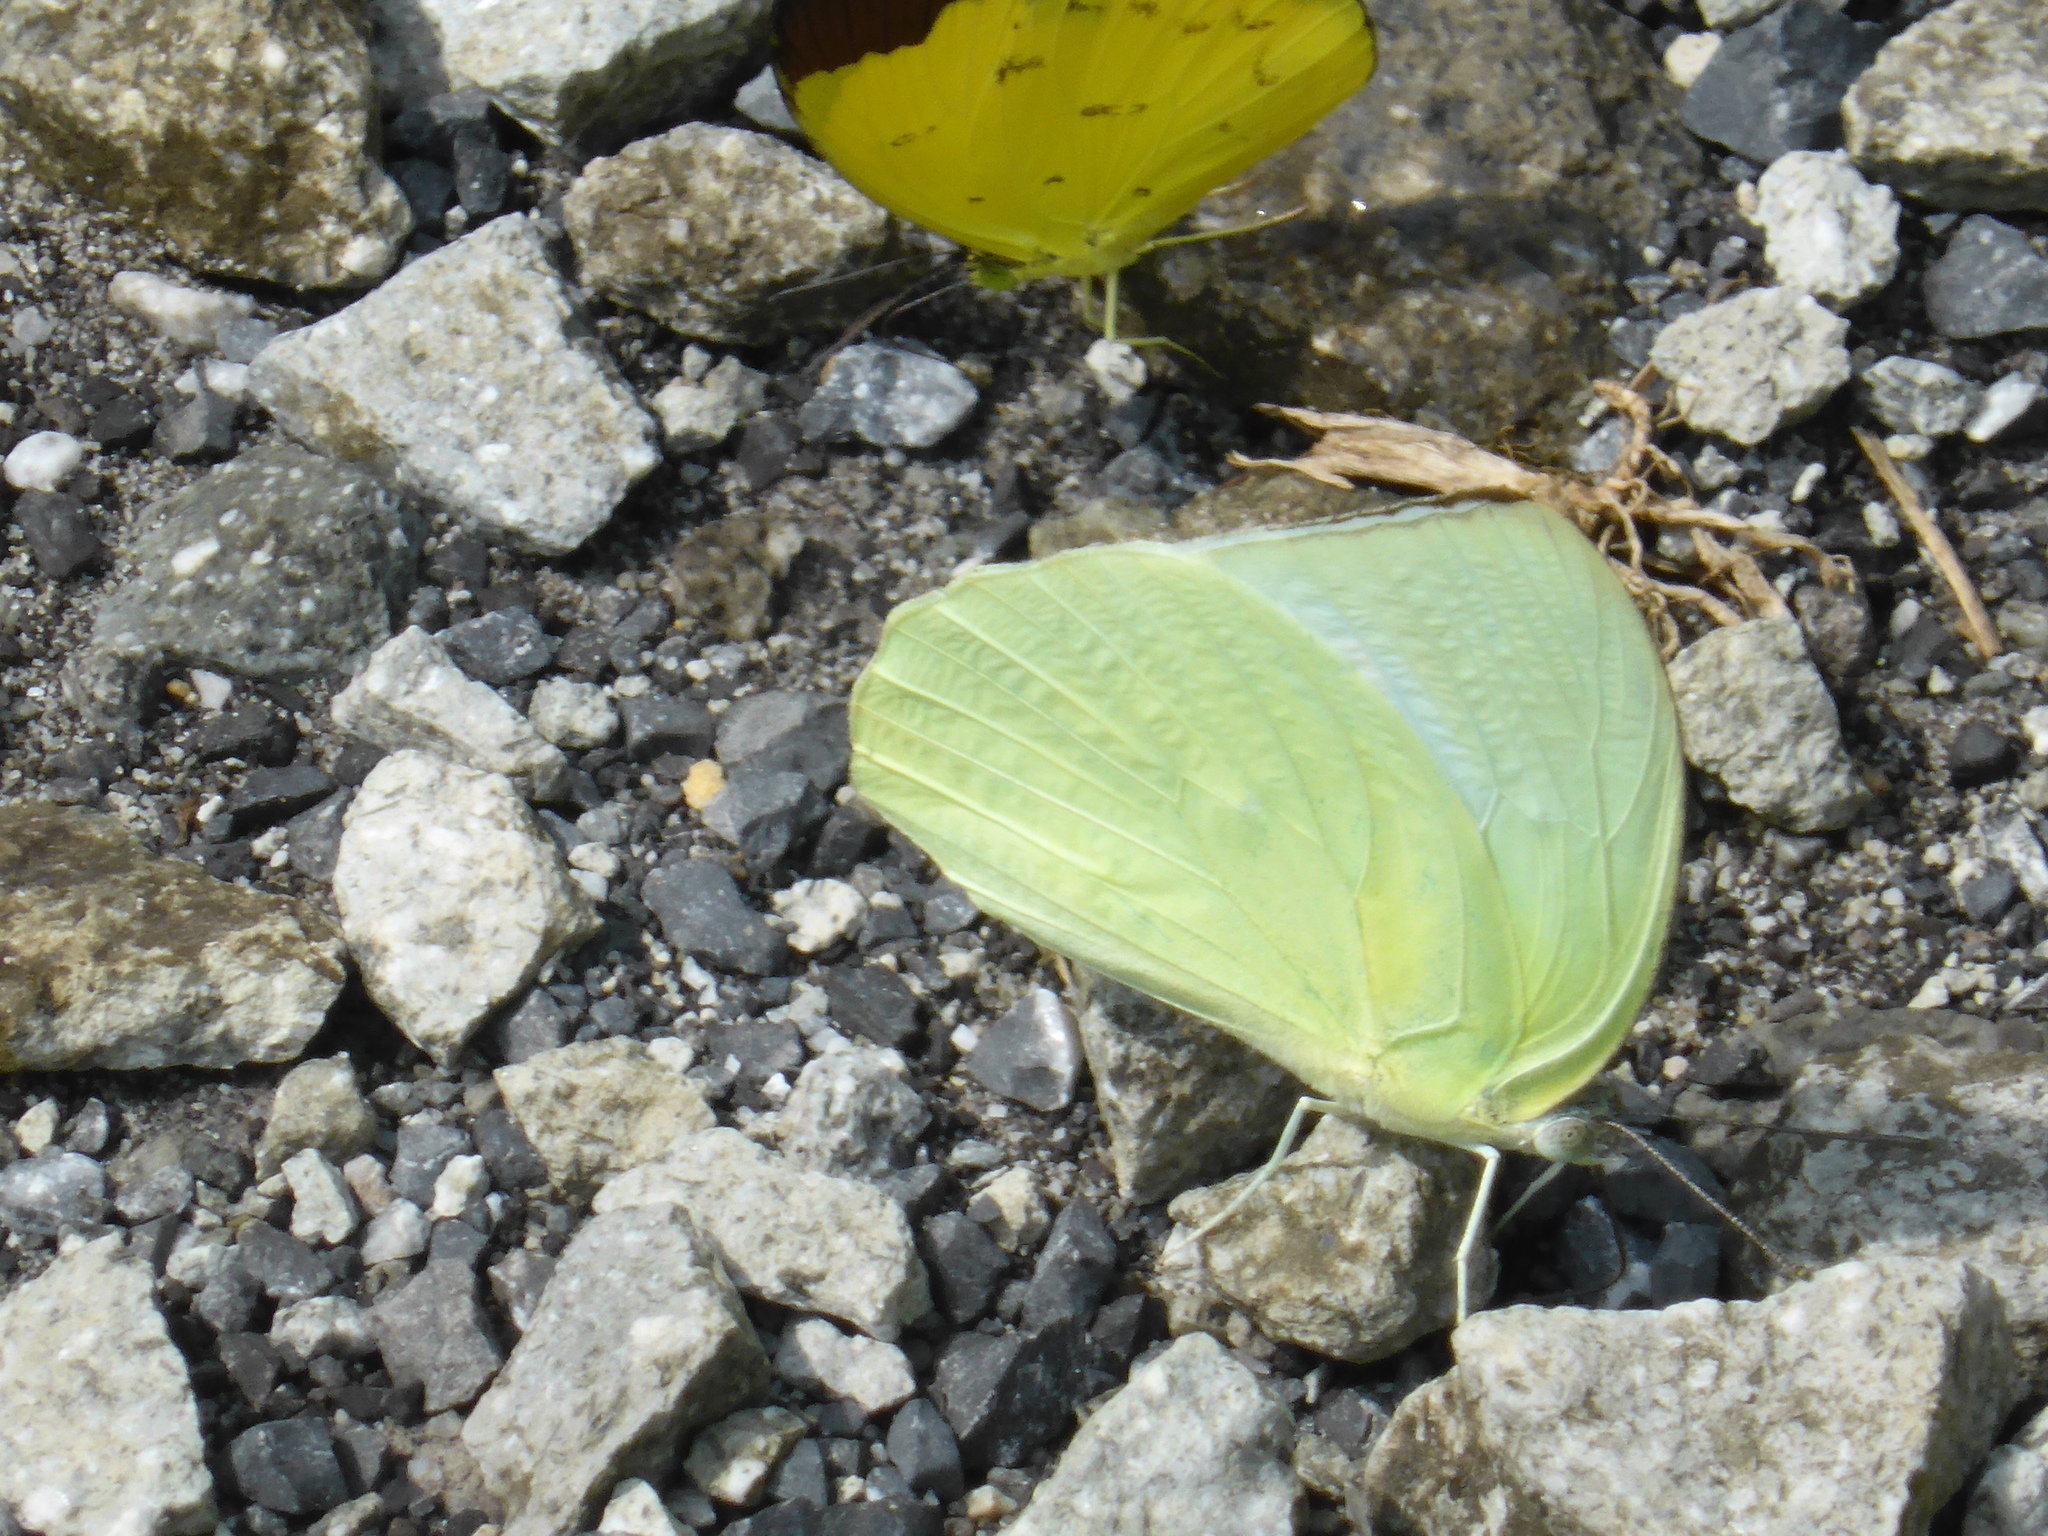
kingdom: Animalia
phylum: Arthropoda
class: Insecta
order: Lepidoptera
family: Pieridae
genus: Catopsilia
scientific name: Catopsilia pomona
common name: Common emigrant
